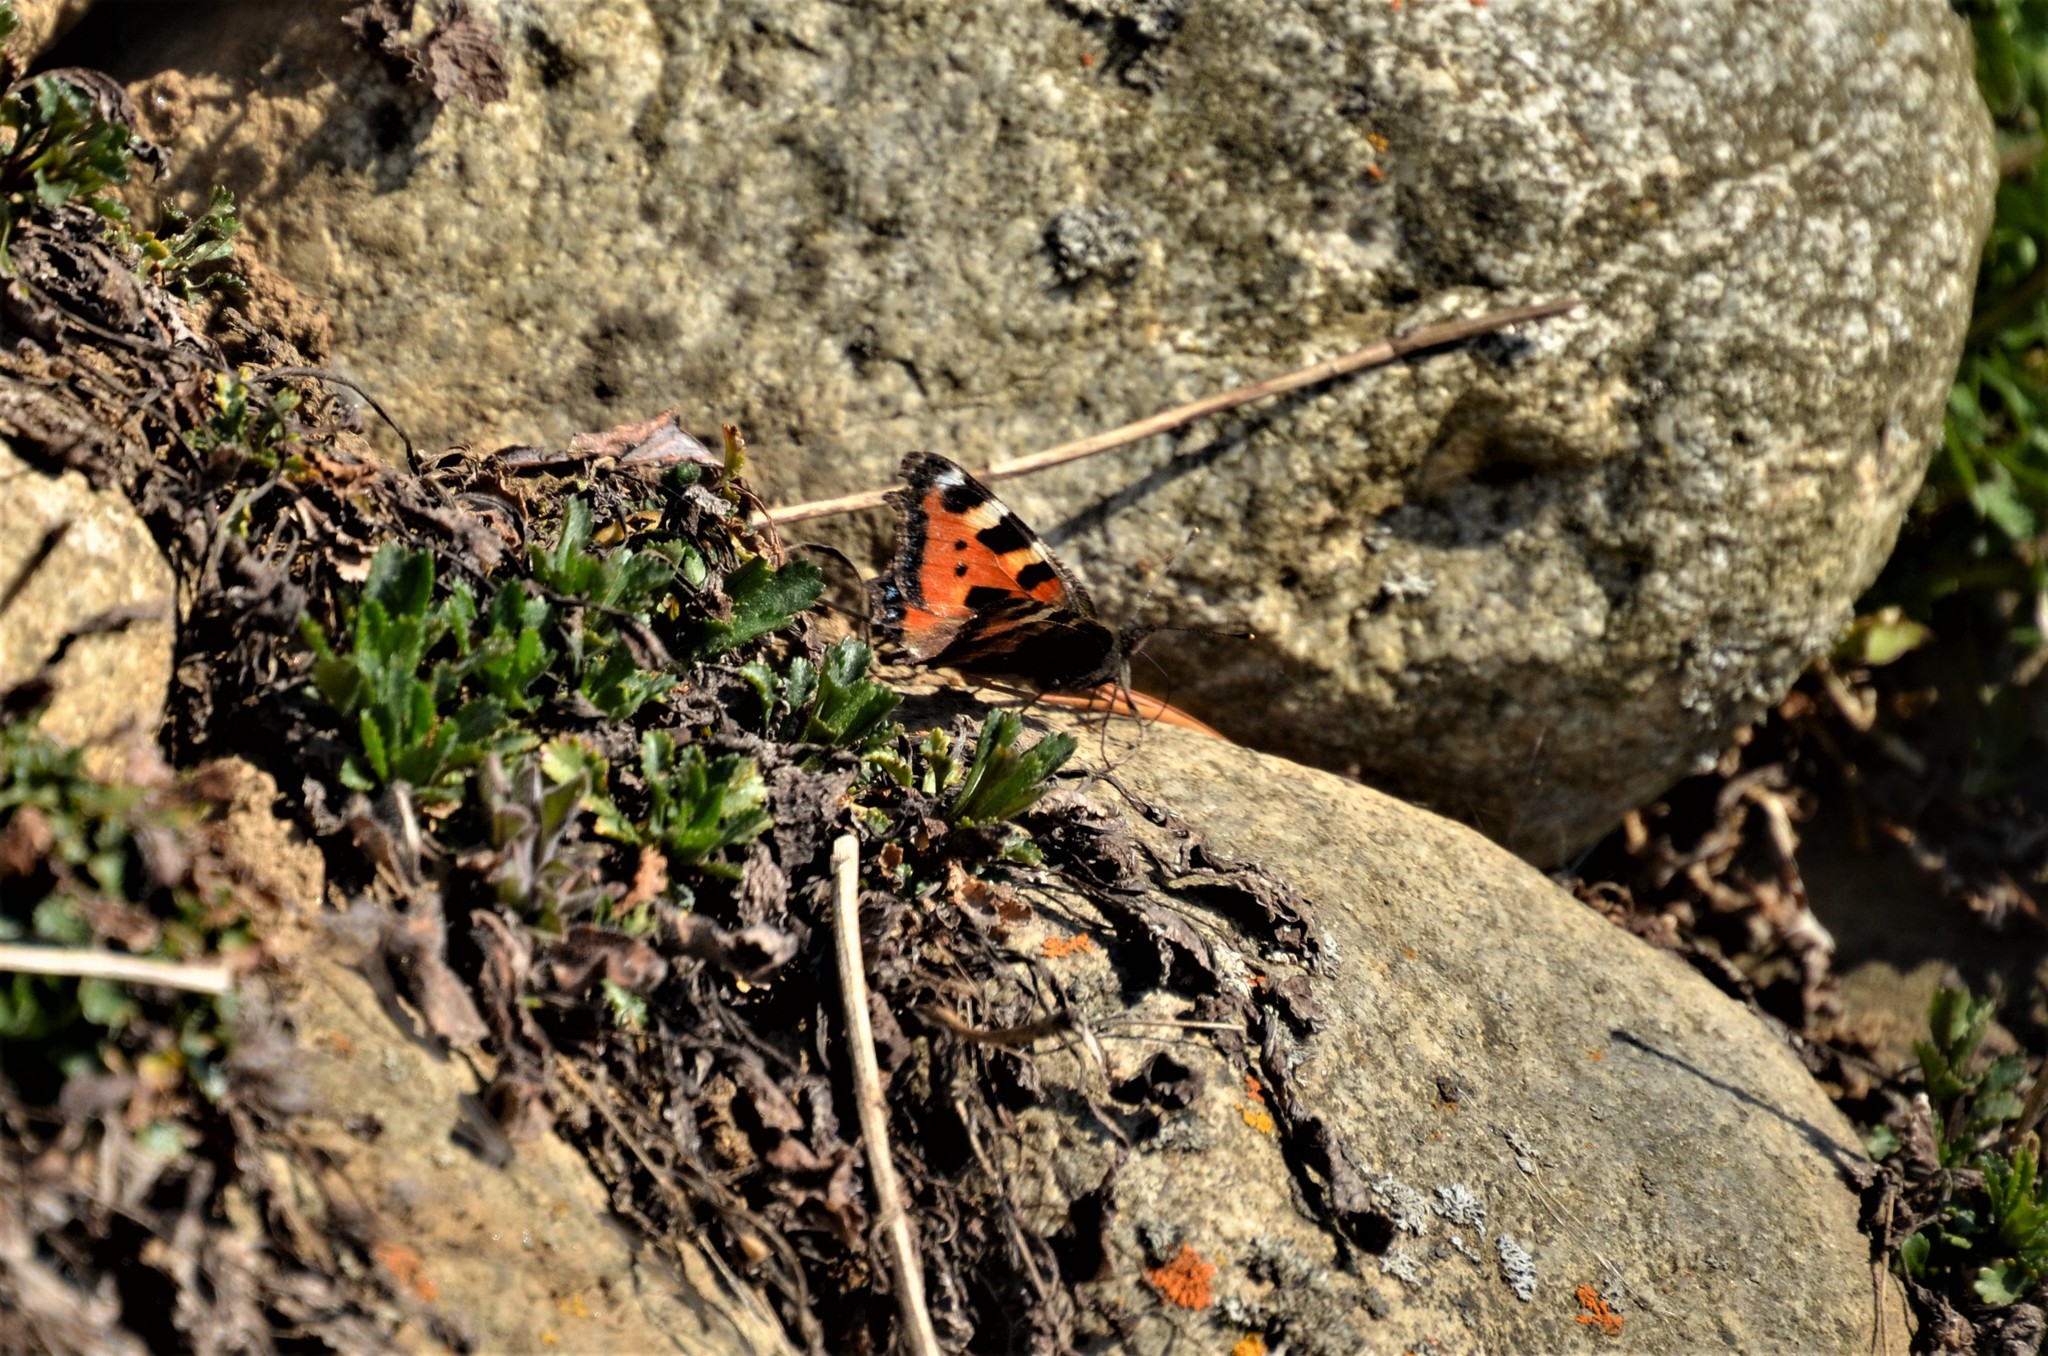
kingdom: Animalia
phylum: Arthropoda
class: Insecta
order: Lepidoptera
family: Nymphalidae
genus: Aglais
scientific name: Aglais urticae
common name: Small tortoiseshell
